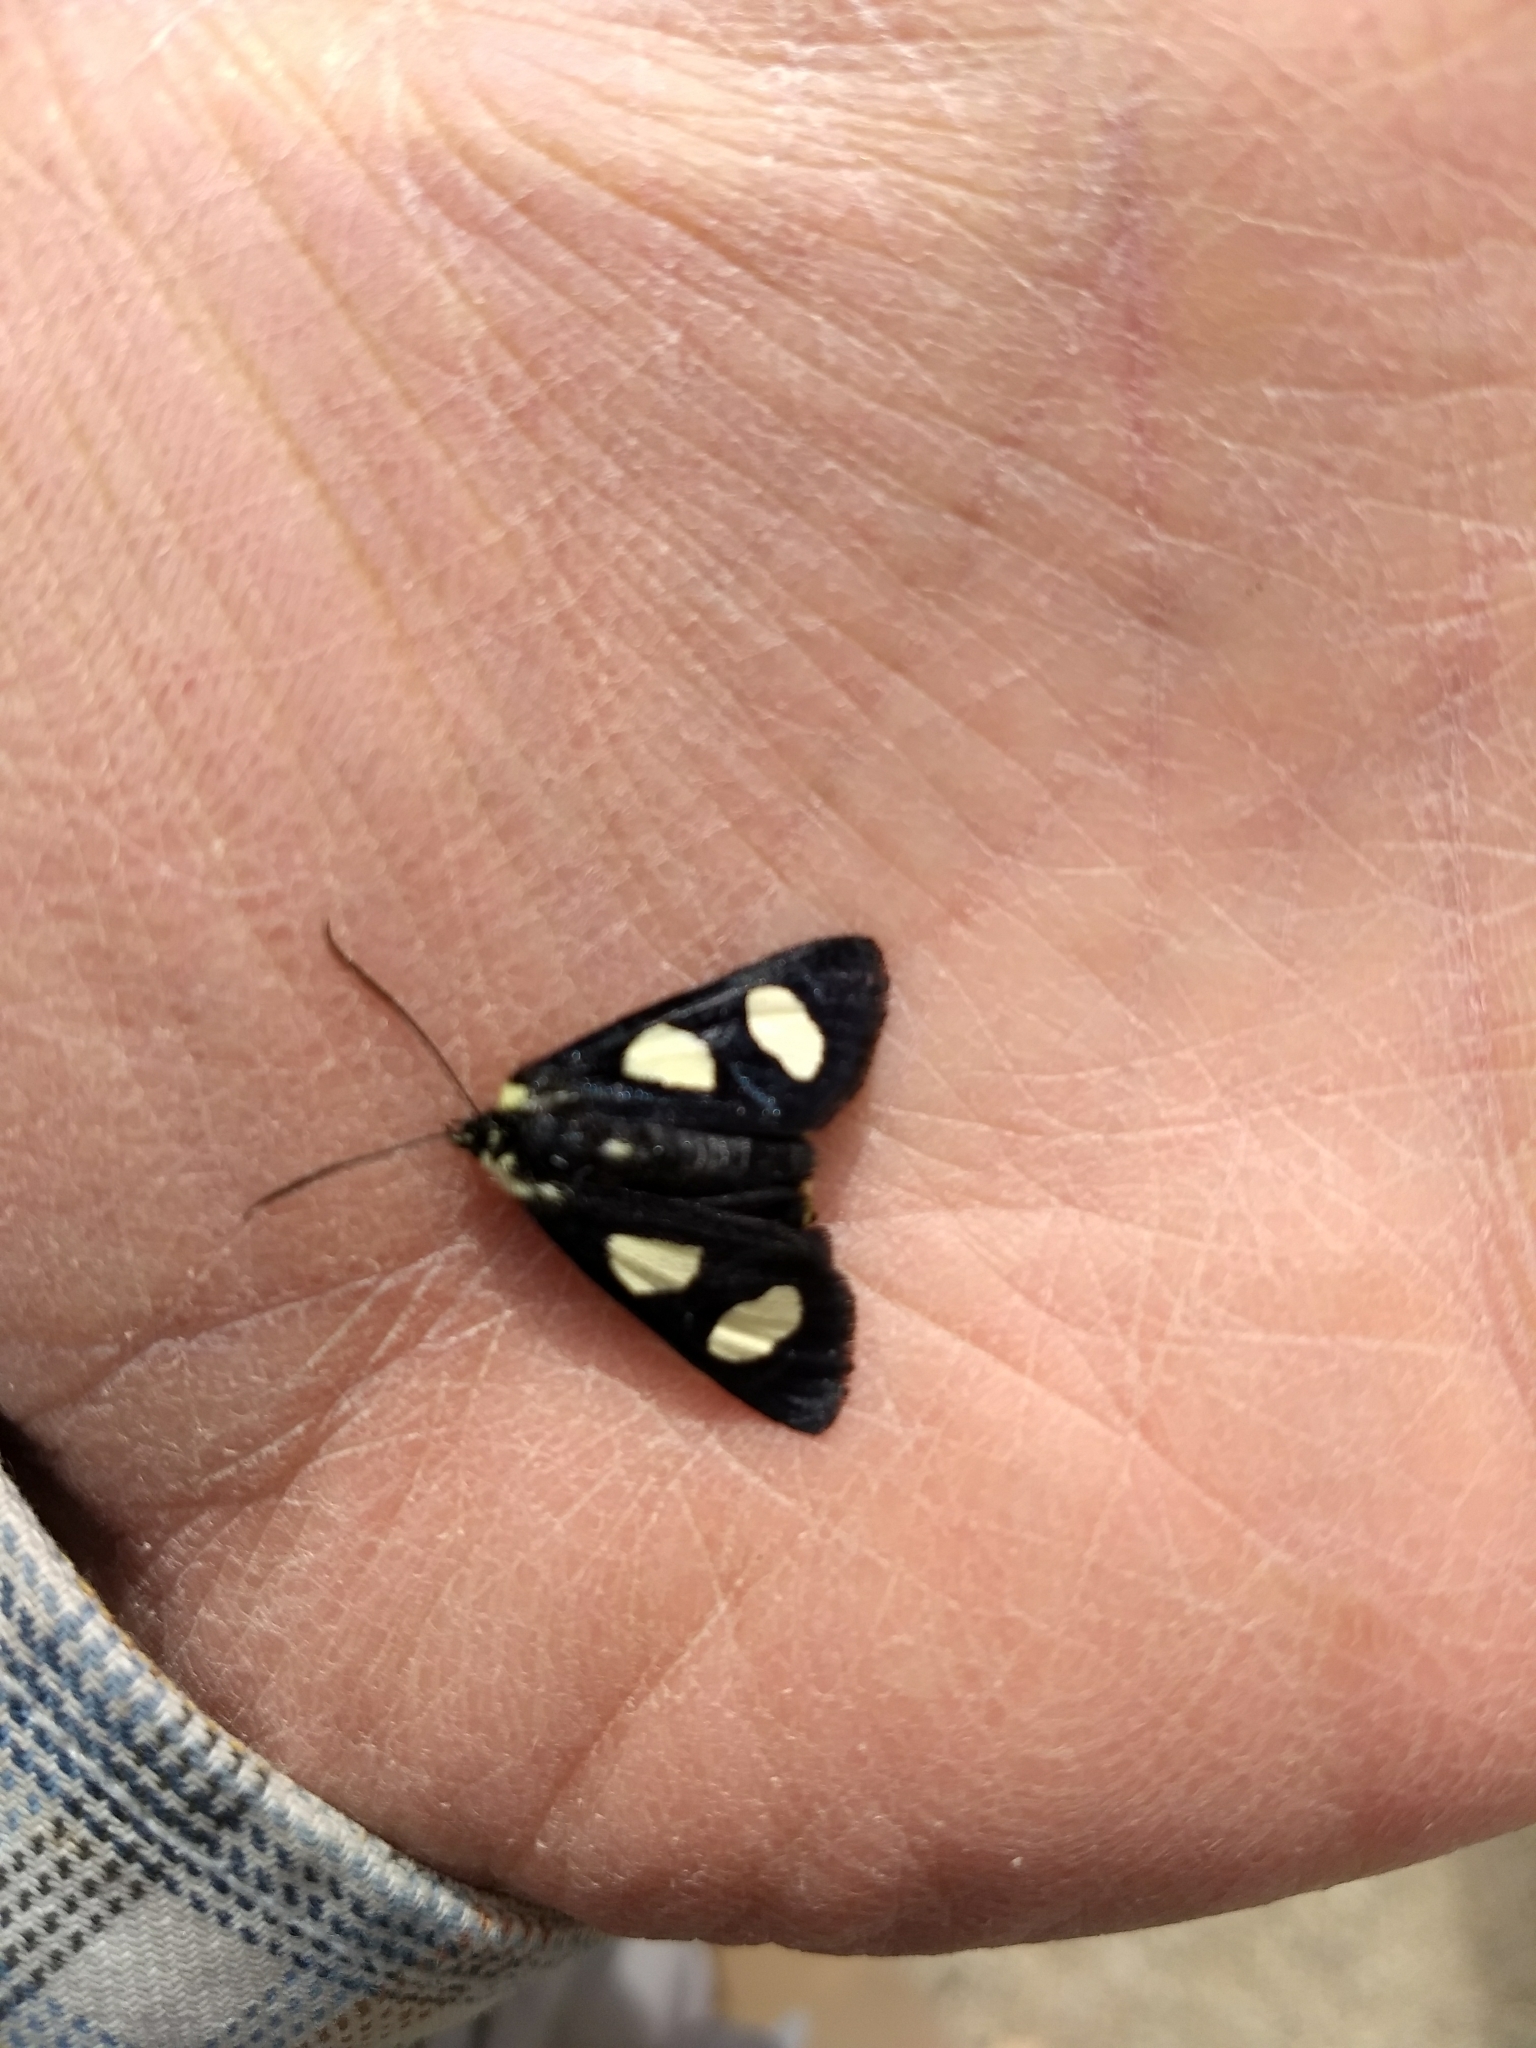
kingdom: Animalia
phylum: Arthropoda
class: Insecta
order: Lepidoptera
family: Noctuidae
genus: Alypia
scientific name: Alypia octomaculata
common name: Eight-spotted forester
